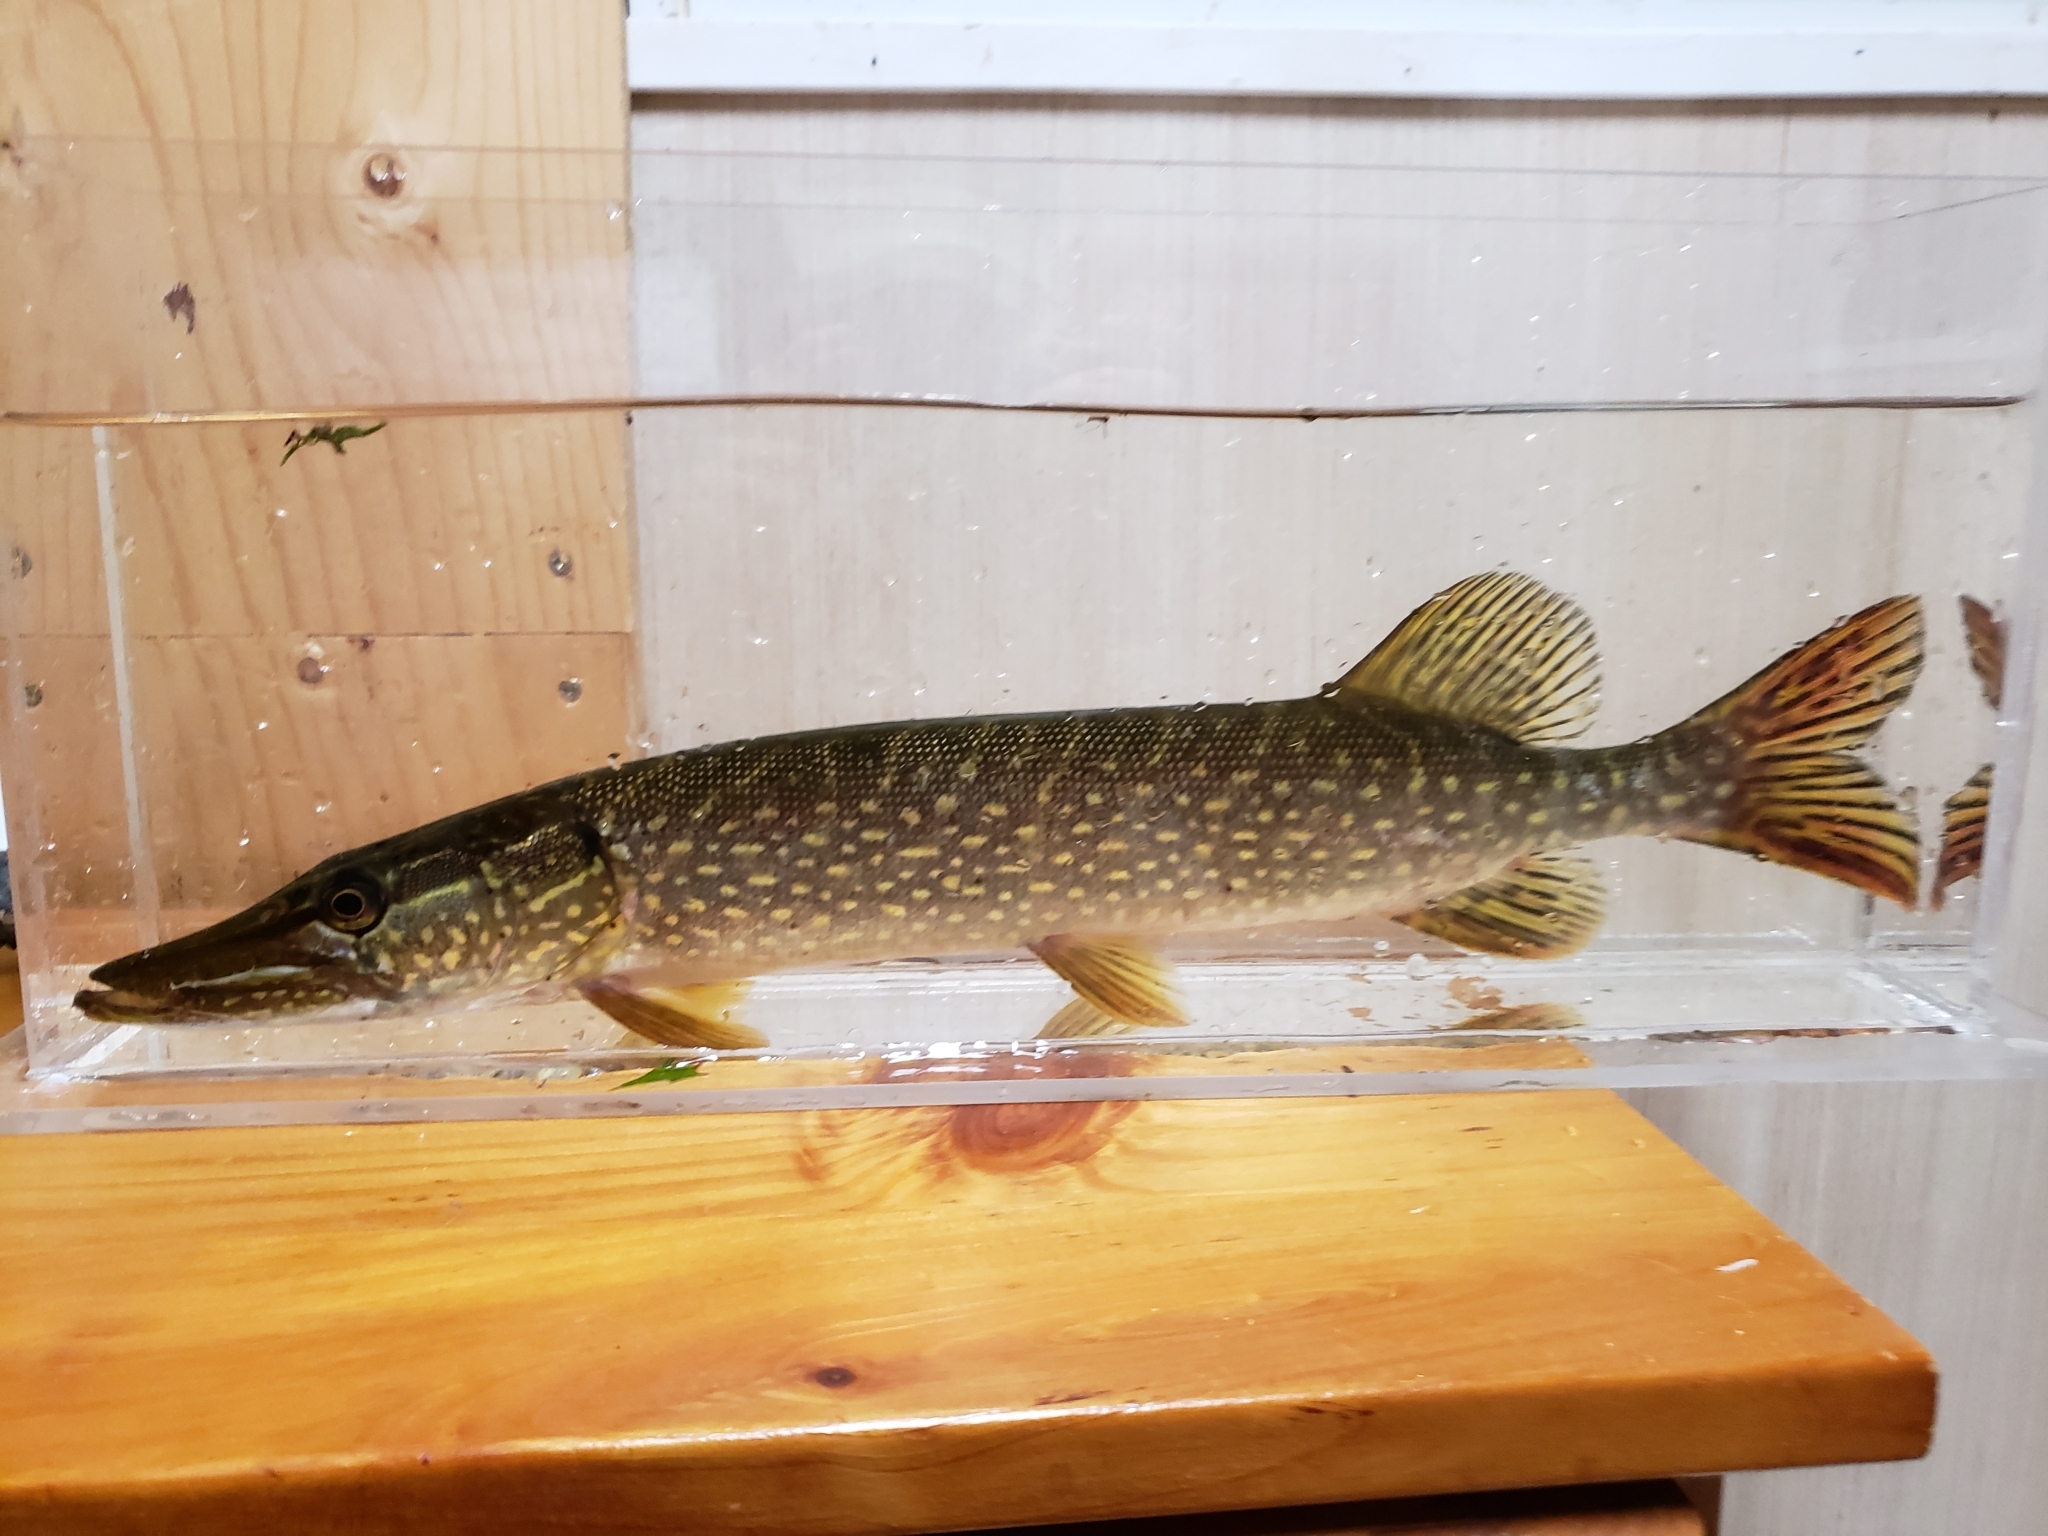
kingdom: Animalia
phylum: Chordata
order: Esociformes
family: Esocidae
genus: Esox
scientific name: Esox lucius
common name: Northern pike
